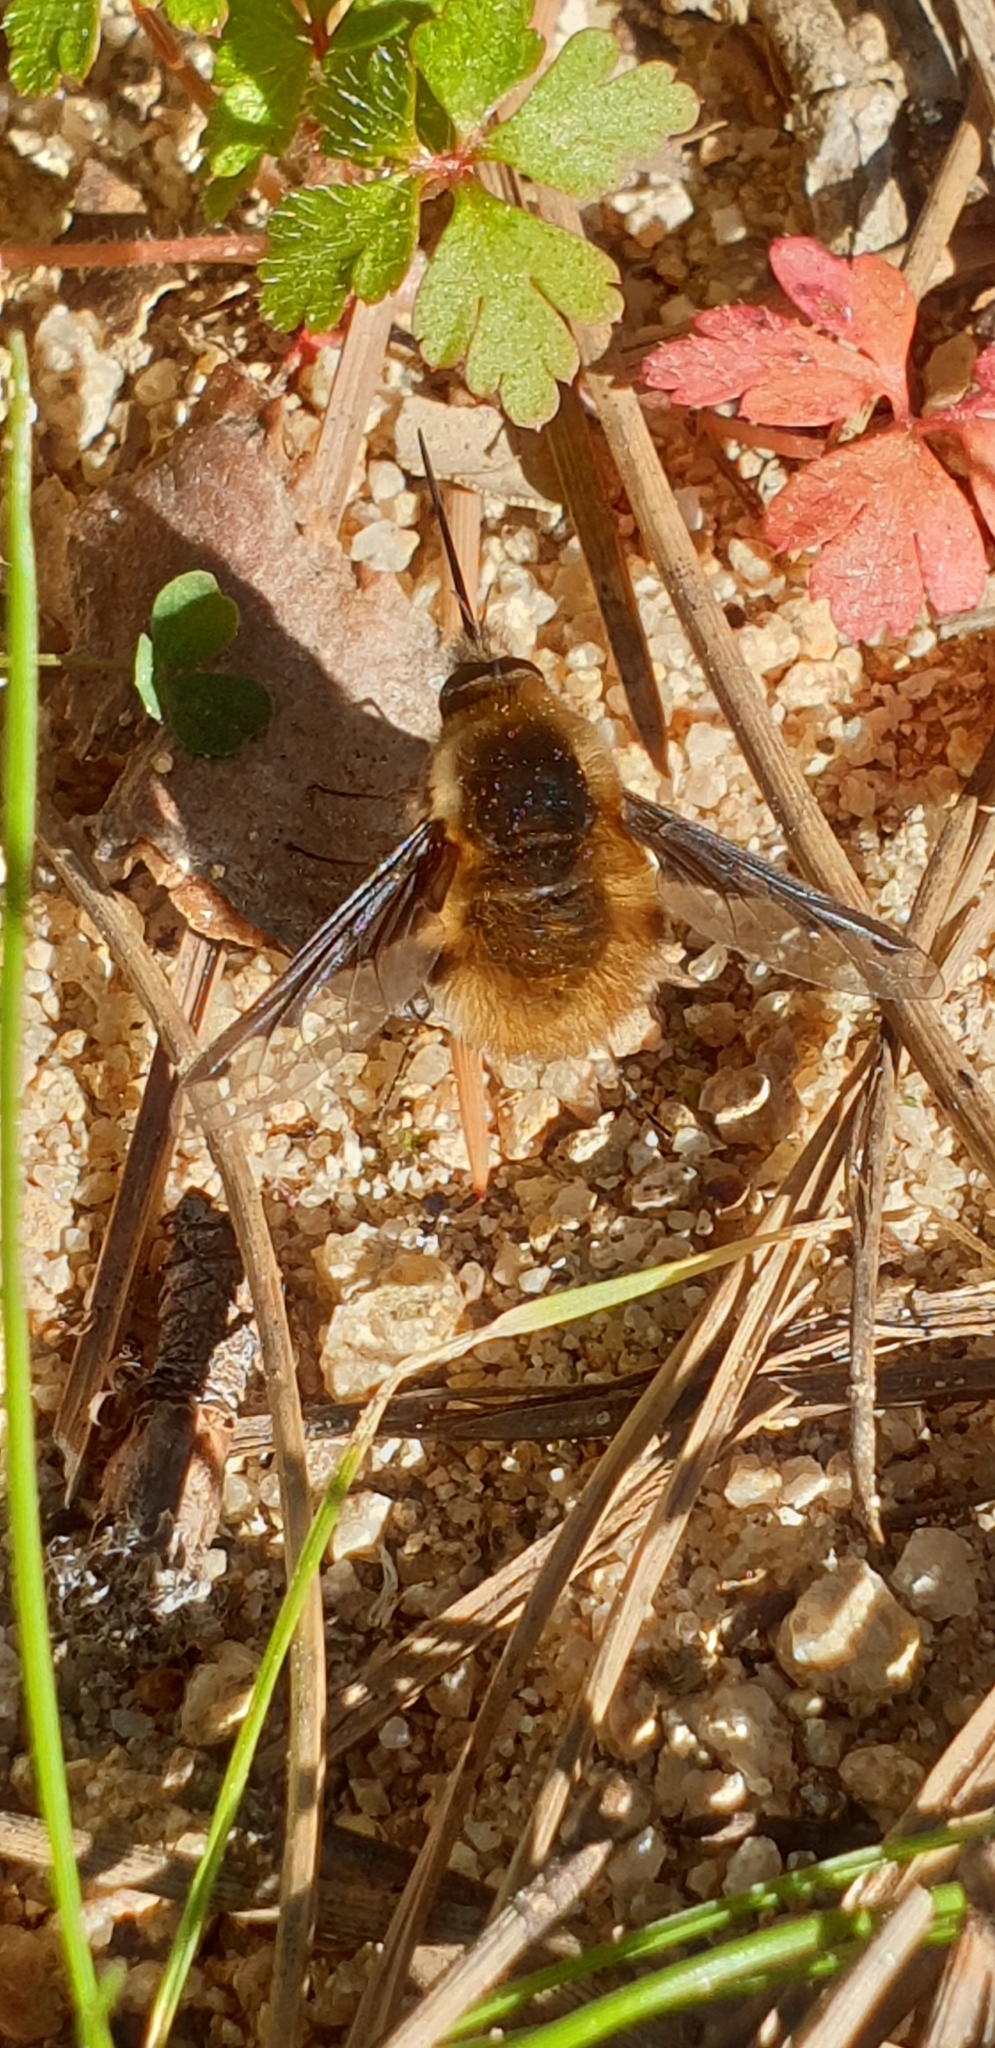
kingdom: Animalia
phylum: Arthropoda
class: Insecta
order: Diptera
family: Bombyliidae
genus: Bombylius
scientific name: Bombylius major
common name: Bee fly
